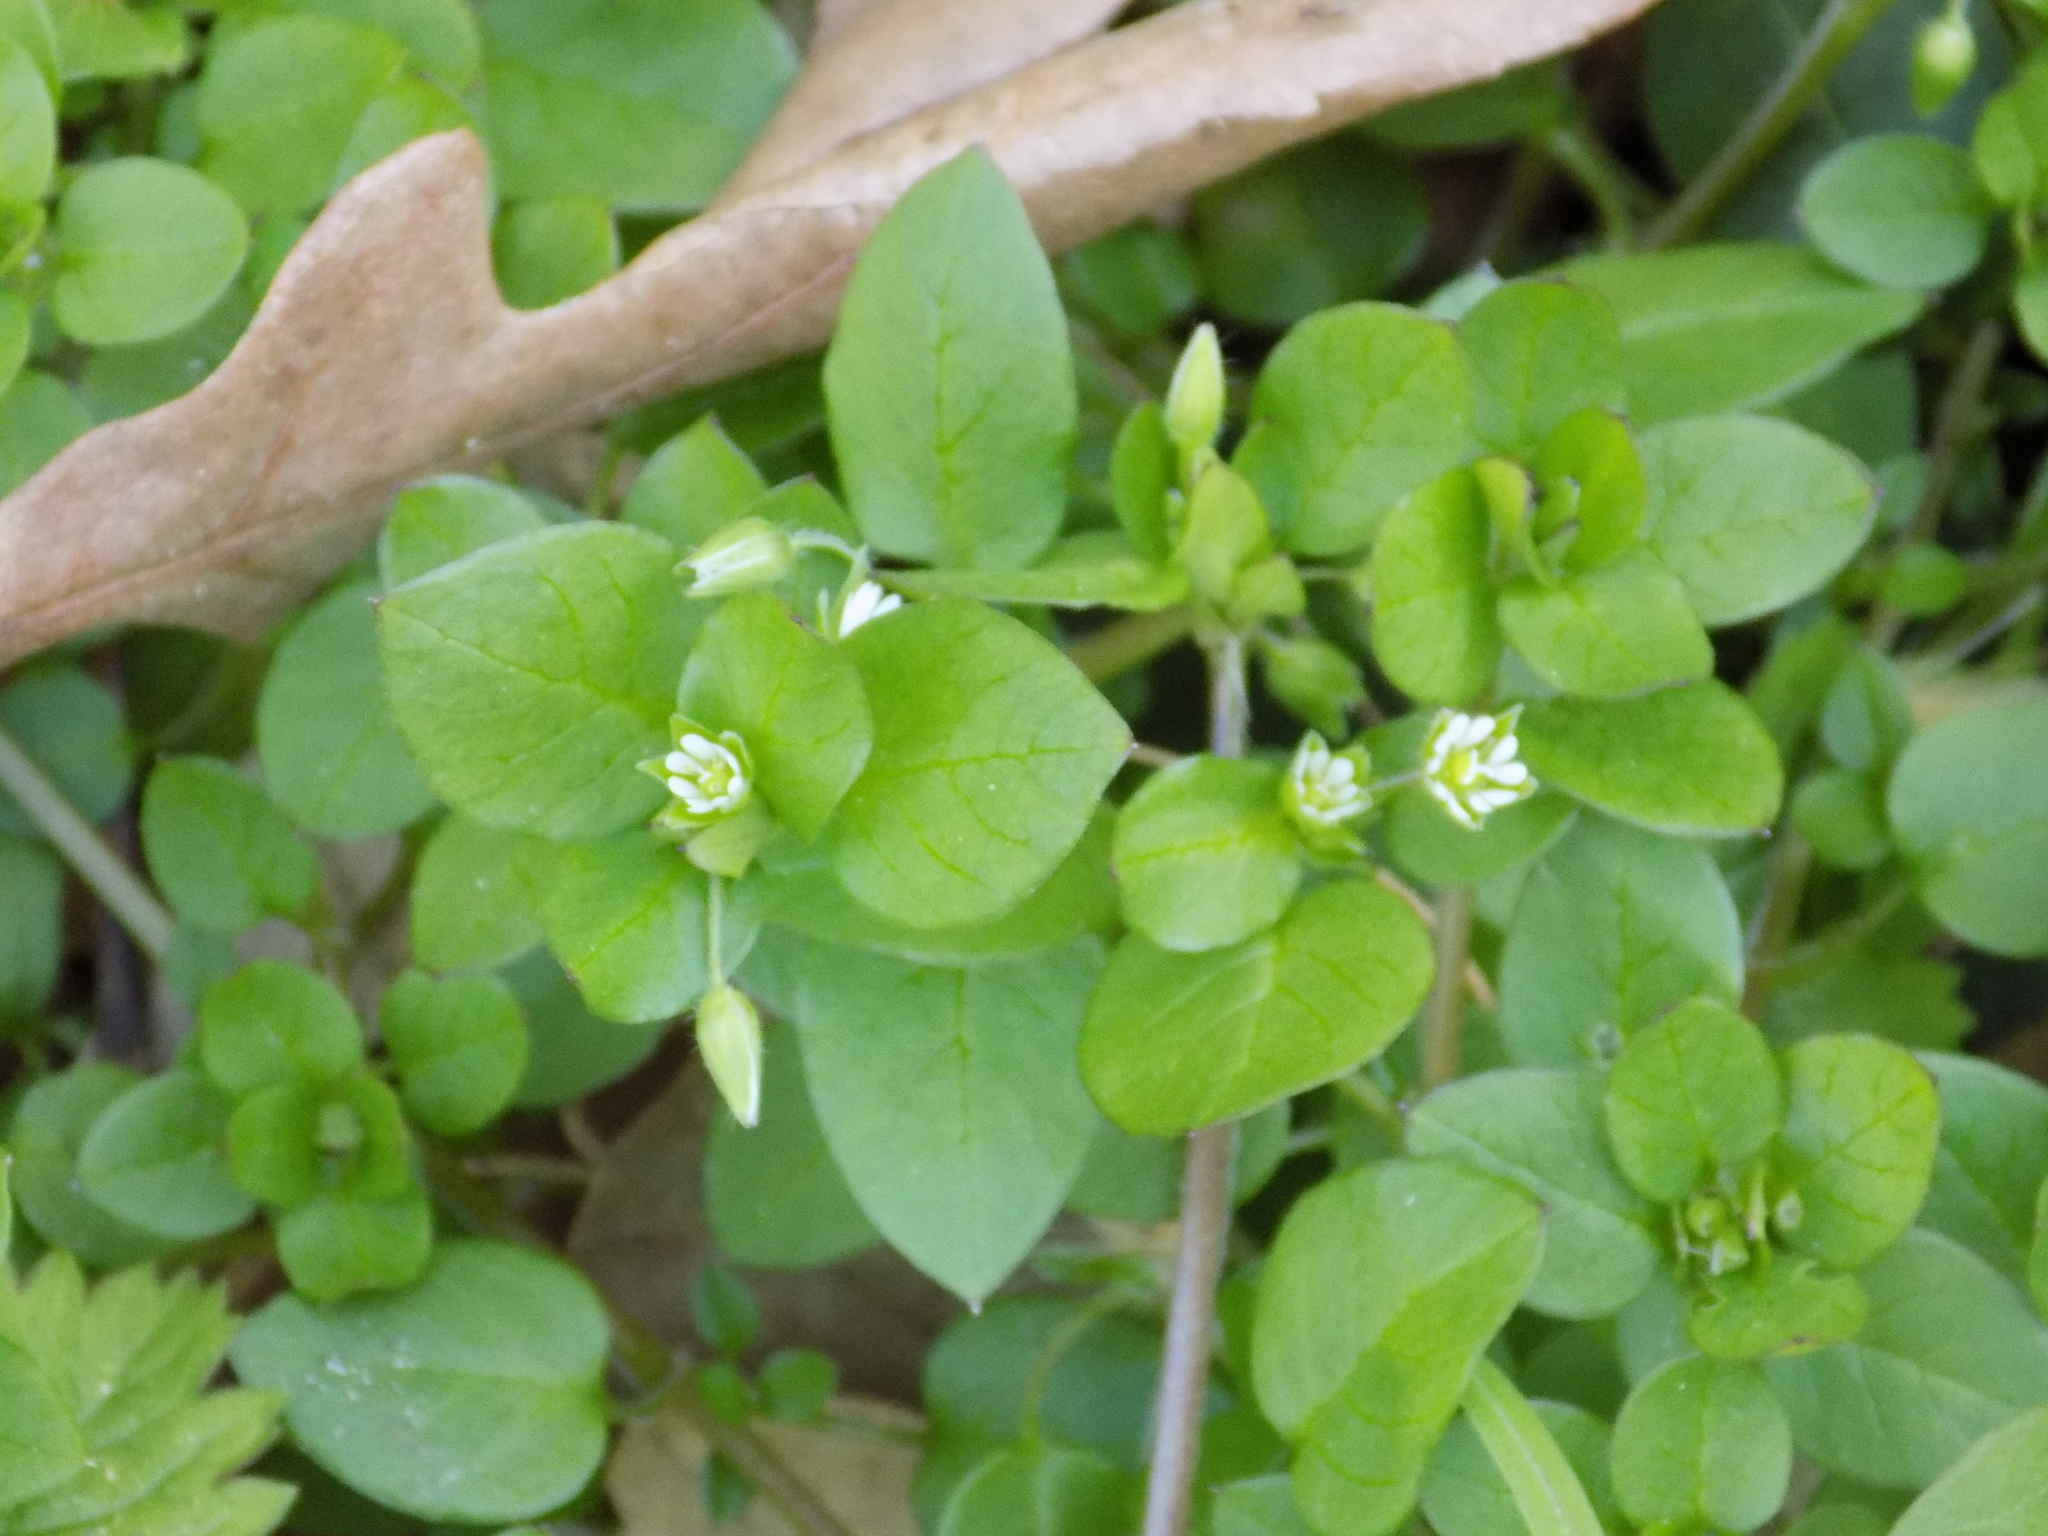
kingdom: Plantae
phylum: Tracheophyta
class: Magnoliopsida
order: Caryophyllales
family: Caryophyllaceae
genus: Stellaria
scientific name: Stellaria media
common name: Common chickweed
